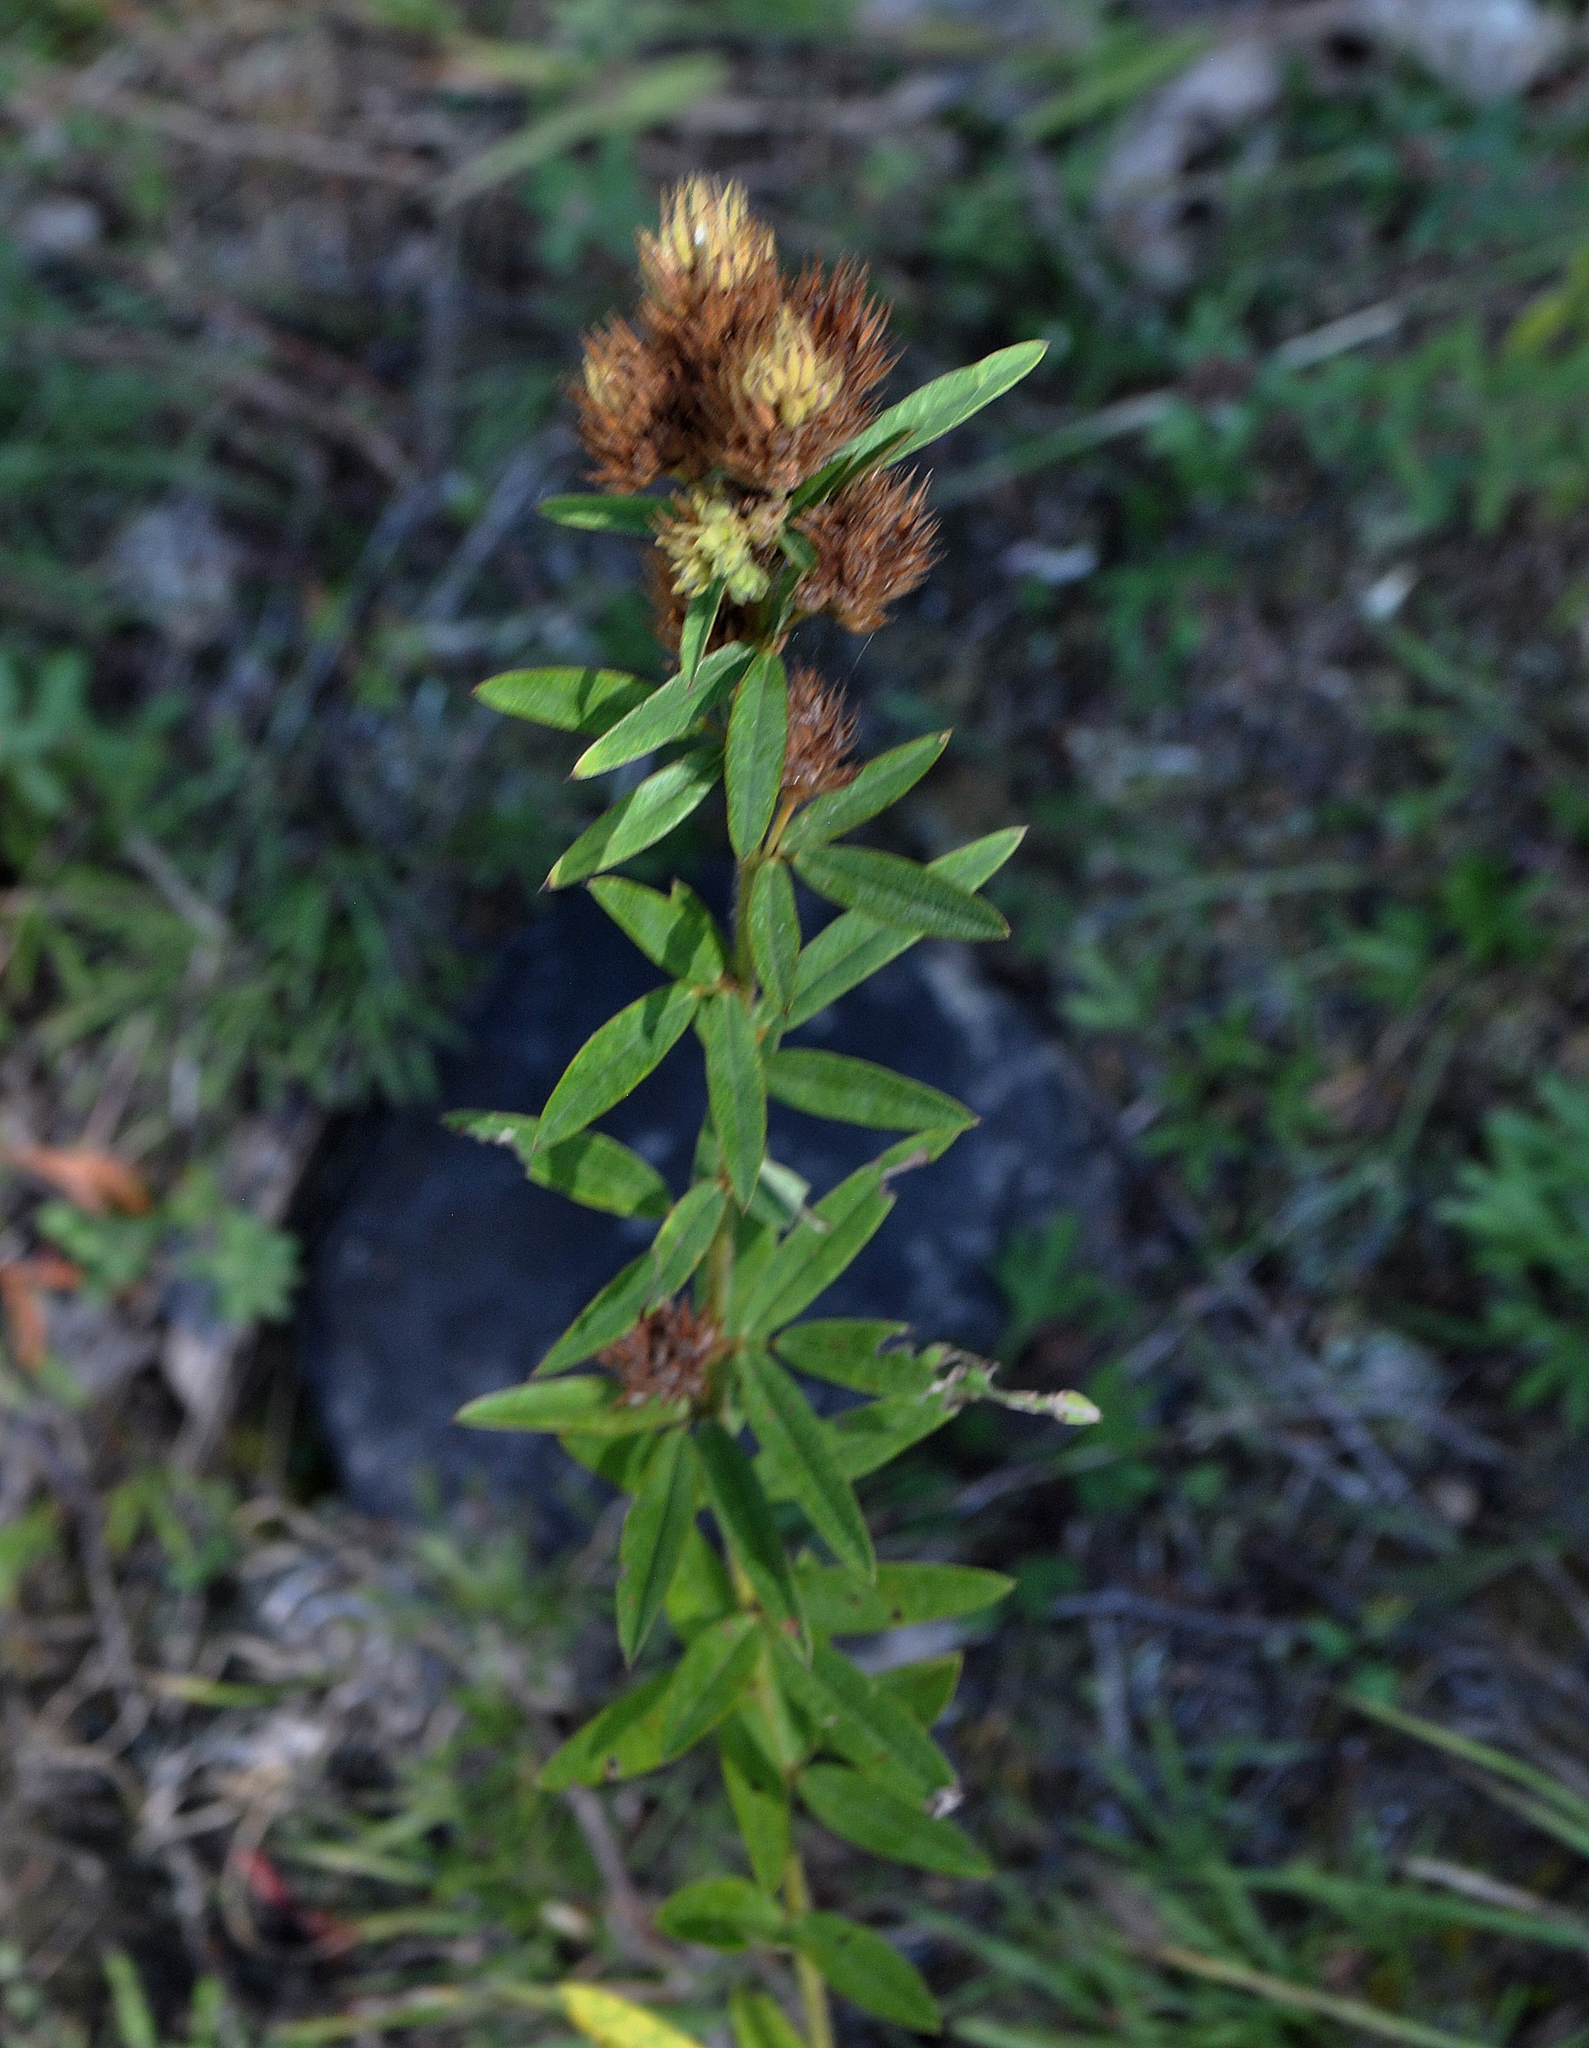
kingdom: Plantae
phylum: Tracheophyta
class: Magnoliopsida
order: Fabales
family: Fabaceae
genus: Lespedeza
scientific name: Lespedeza capitata
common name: Dusty clover
